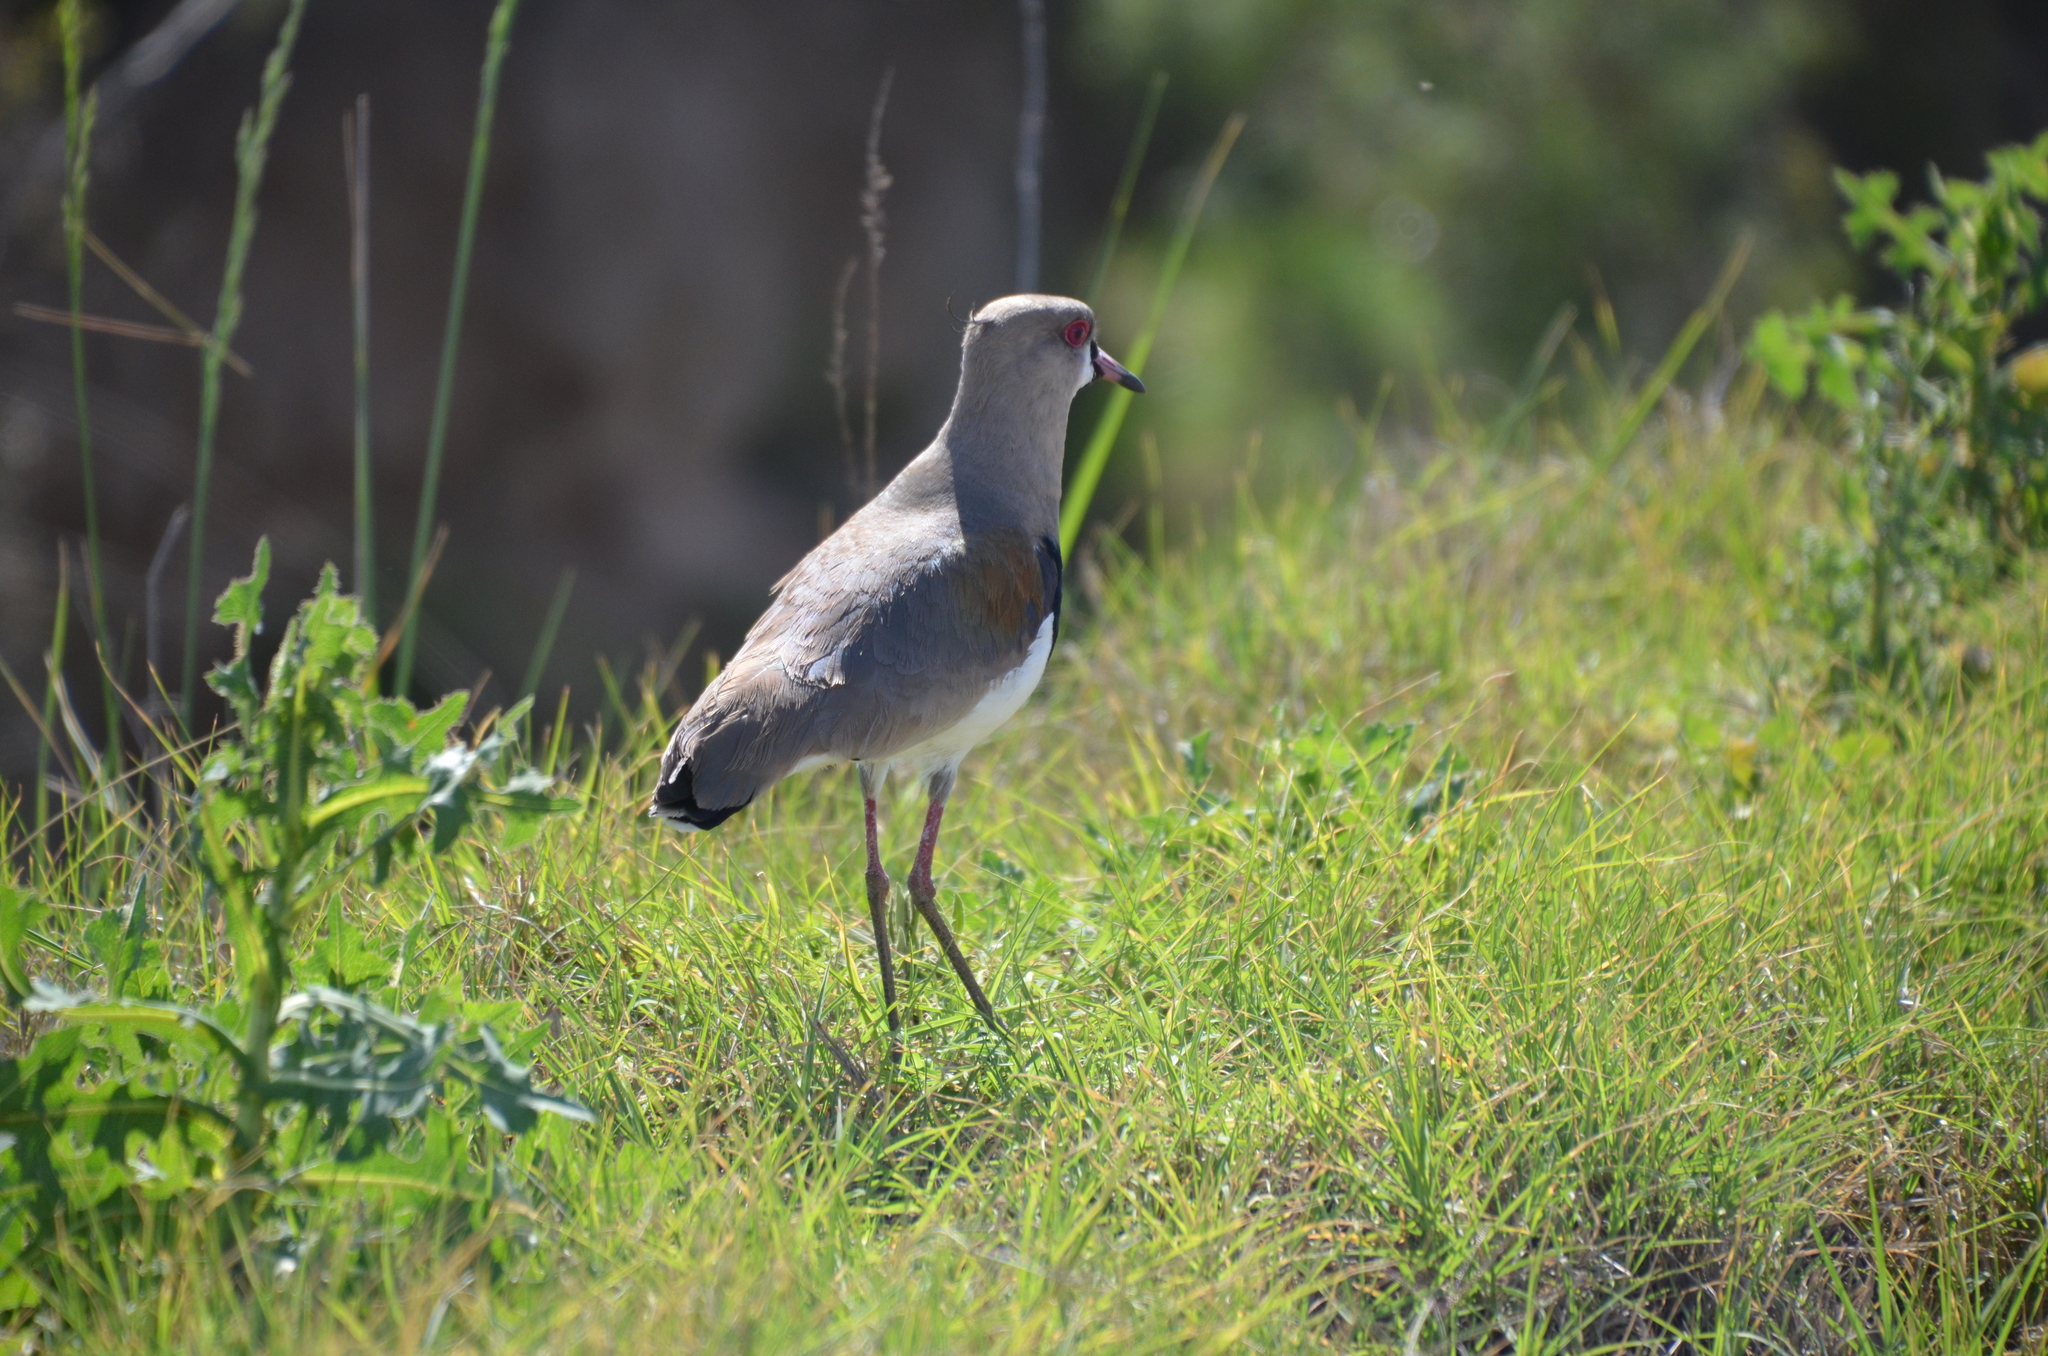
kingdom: Animalia
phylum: Chordata
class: Aves
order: Charadriiformes
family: Charadriidae
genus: Vanellus
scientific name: Vanellus chilensis
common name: Southern lapwing
